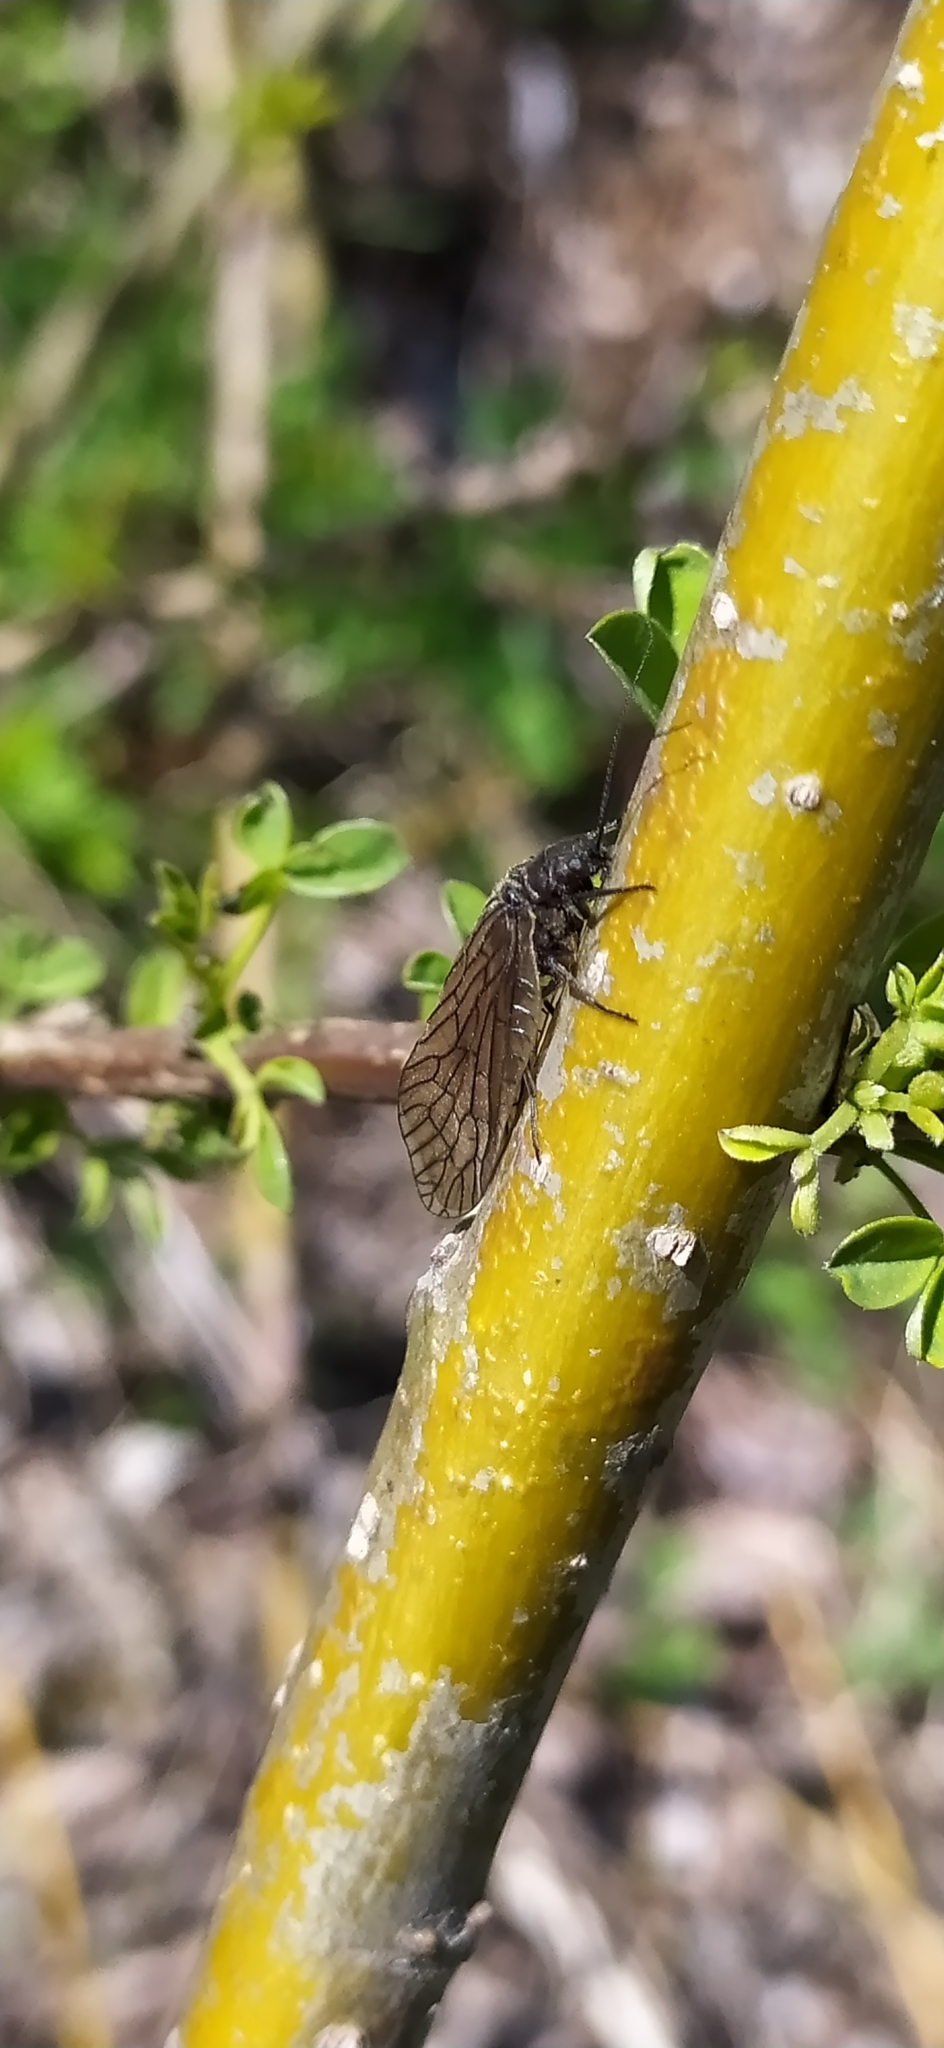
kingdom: Animalia
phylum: Arthropoda
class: Insecta
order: Megaloptera
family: Sialidae
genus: Sialis
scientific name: Sialis
